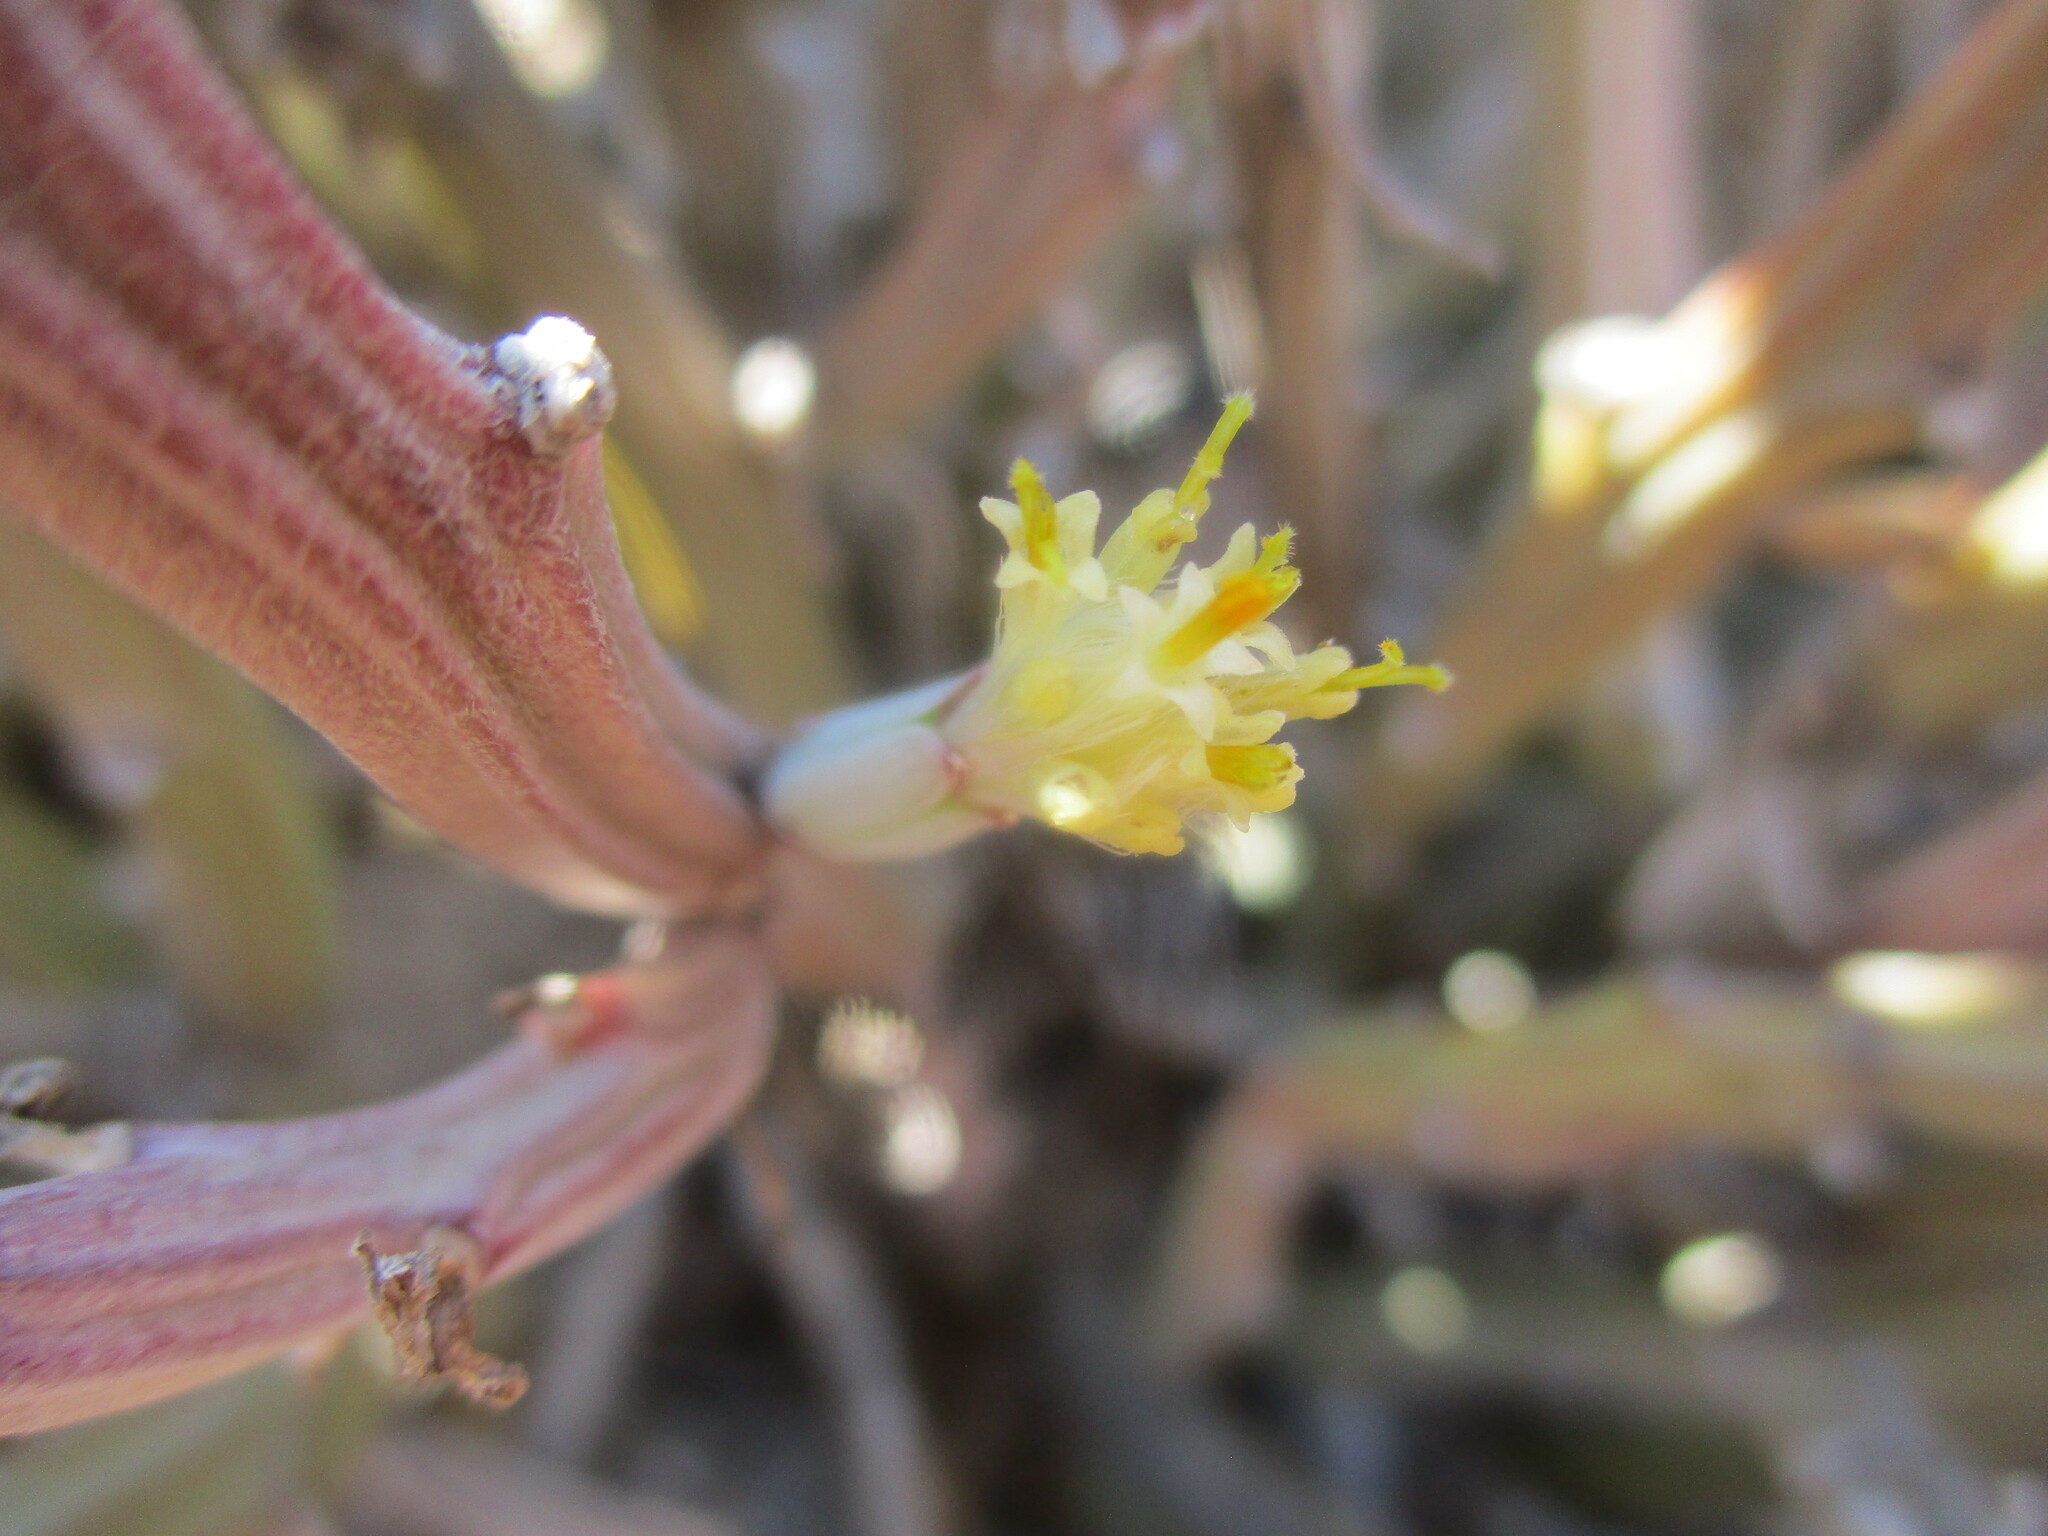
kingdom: Plantae
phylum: Tracheophyta
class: Magnoliopsida
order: Asterales
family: Asteraceae
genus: Curio
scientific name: Curio avasimontanus
